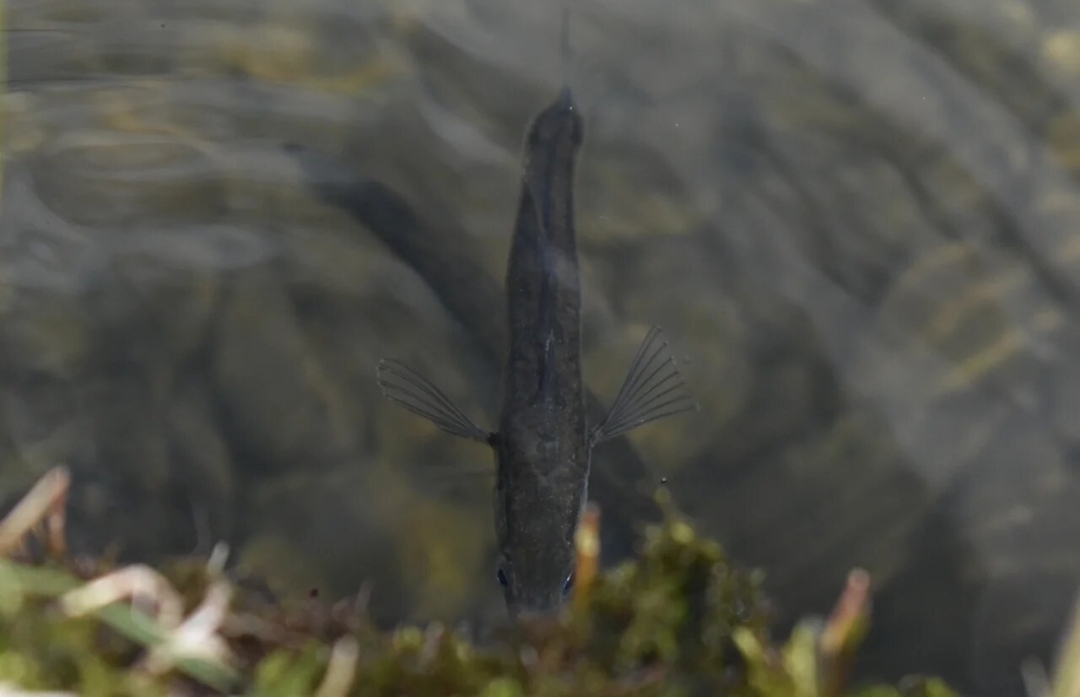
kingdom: Animalia
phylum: Chordata
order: Gasterosteiformes
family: Gasterosteidae
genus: Gasterosteus
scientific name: Gasterosteus aculeatus
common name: Three-spined stickleback
